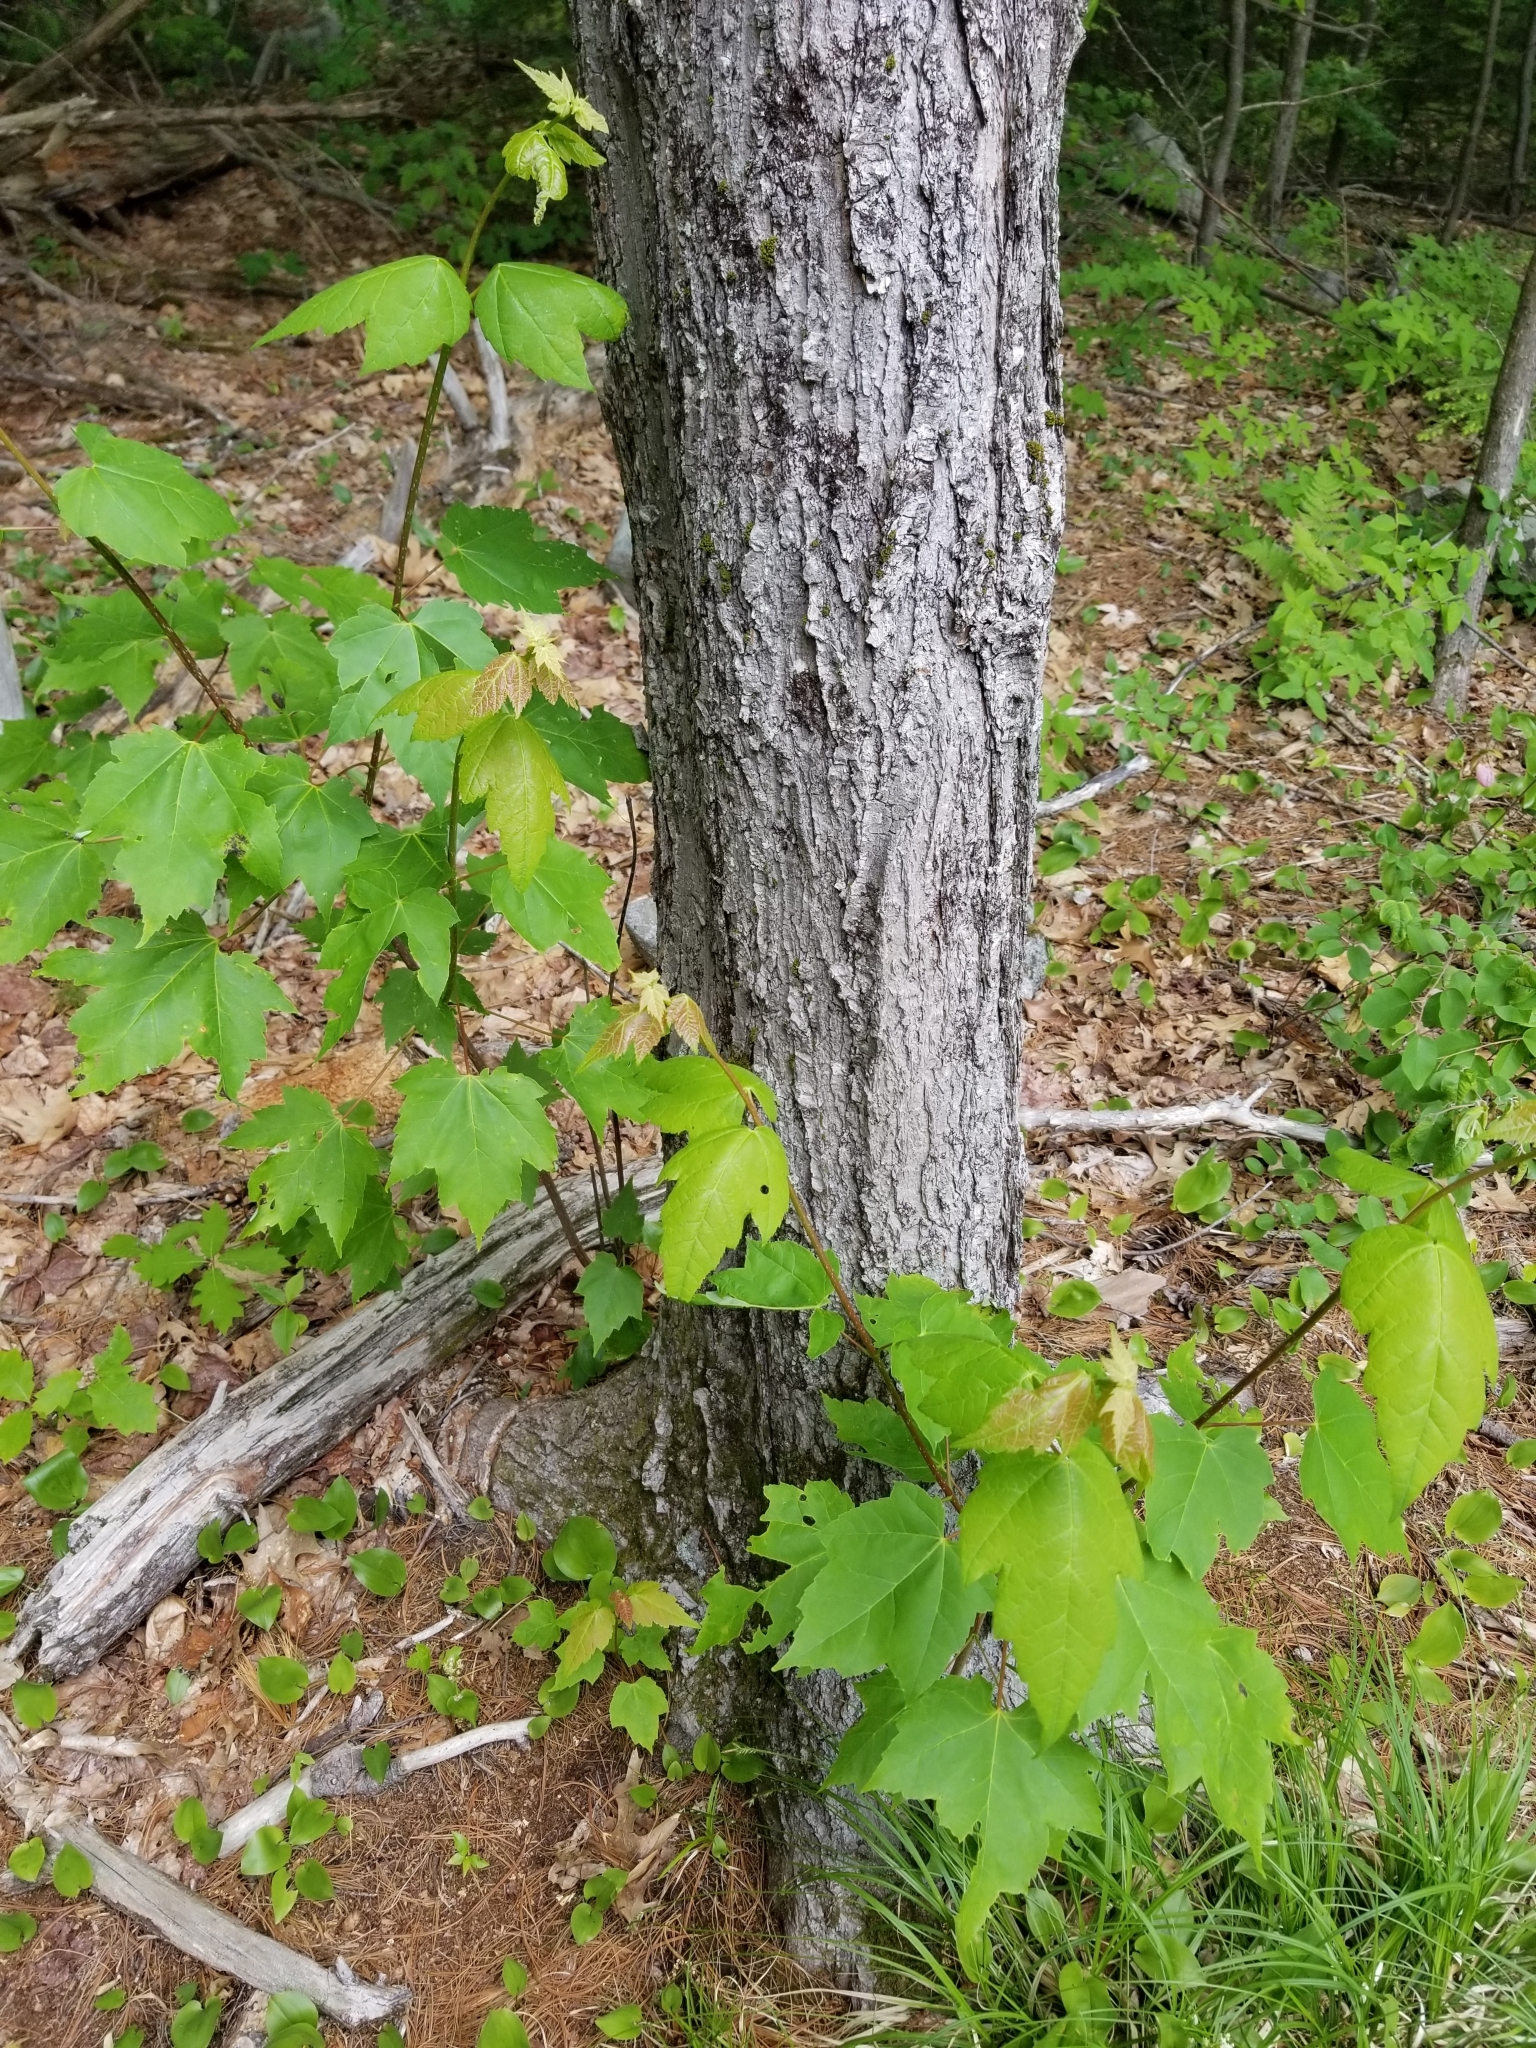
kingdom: Plantae
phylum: Tracheophyta
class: Magnoliopsida
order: Sapindales
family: Sapindaceae
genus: Acer
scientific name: Acer rubrum
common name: Red maple
